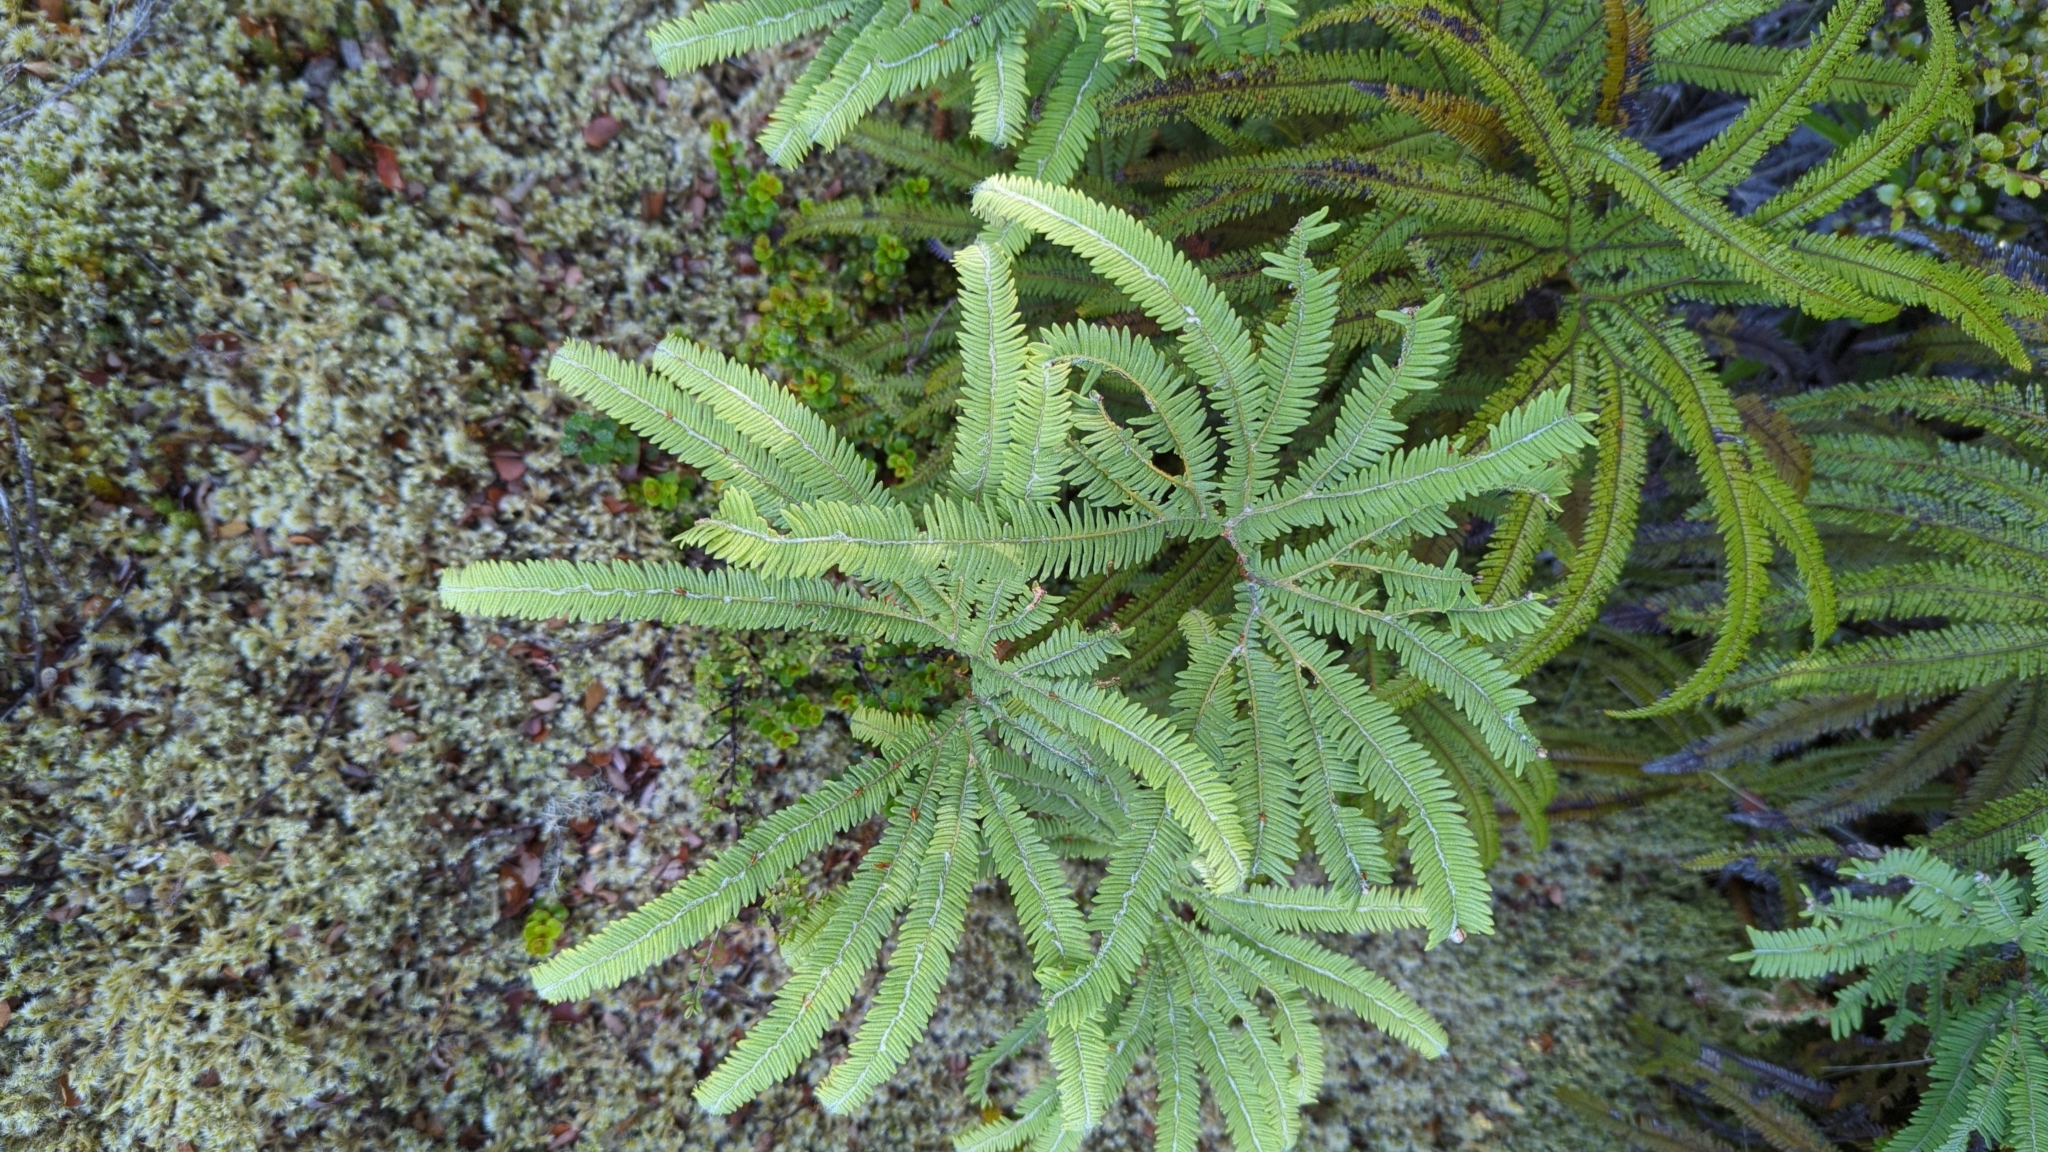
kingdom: Plantae
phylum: Tracheophyta
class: Polypodiopsida
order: Gleicheniales
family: Gleicheniaceae
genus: Sticherus
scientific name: Sticherus cunninghamii
